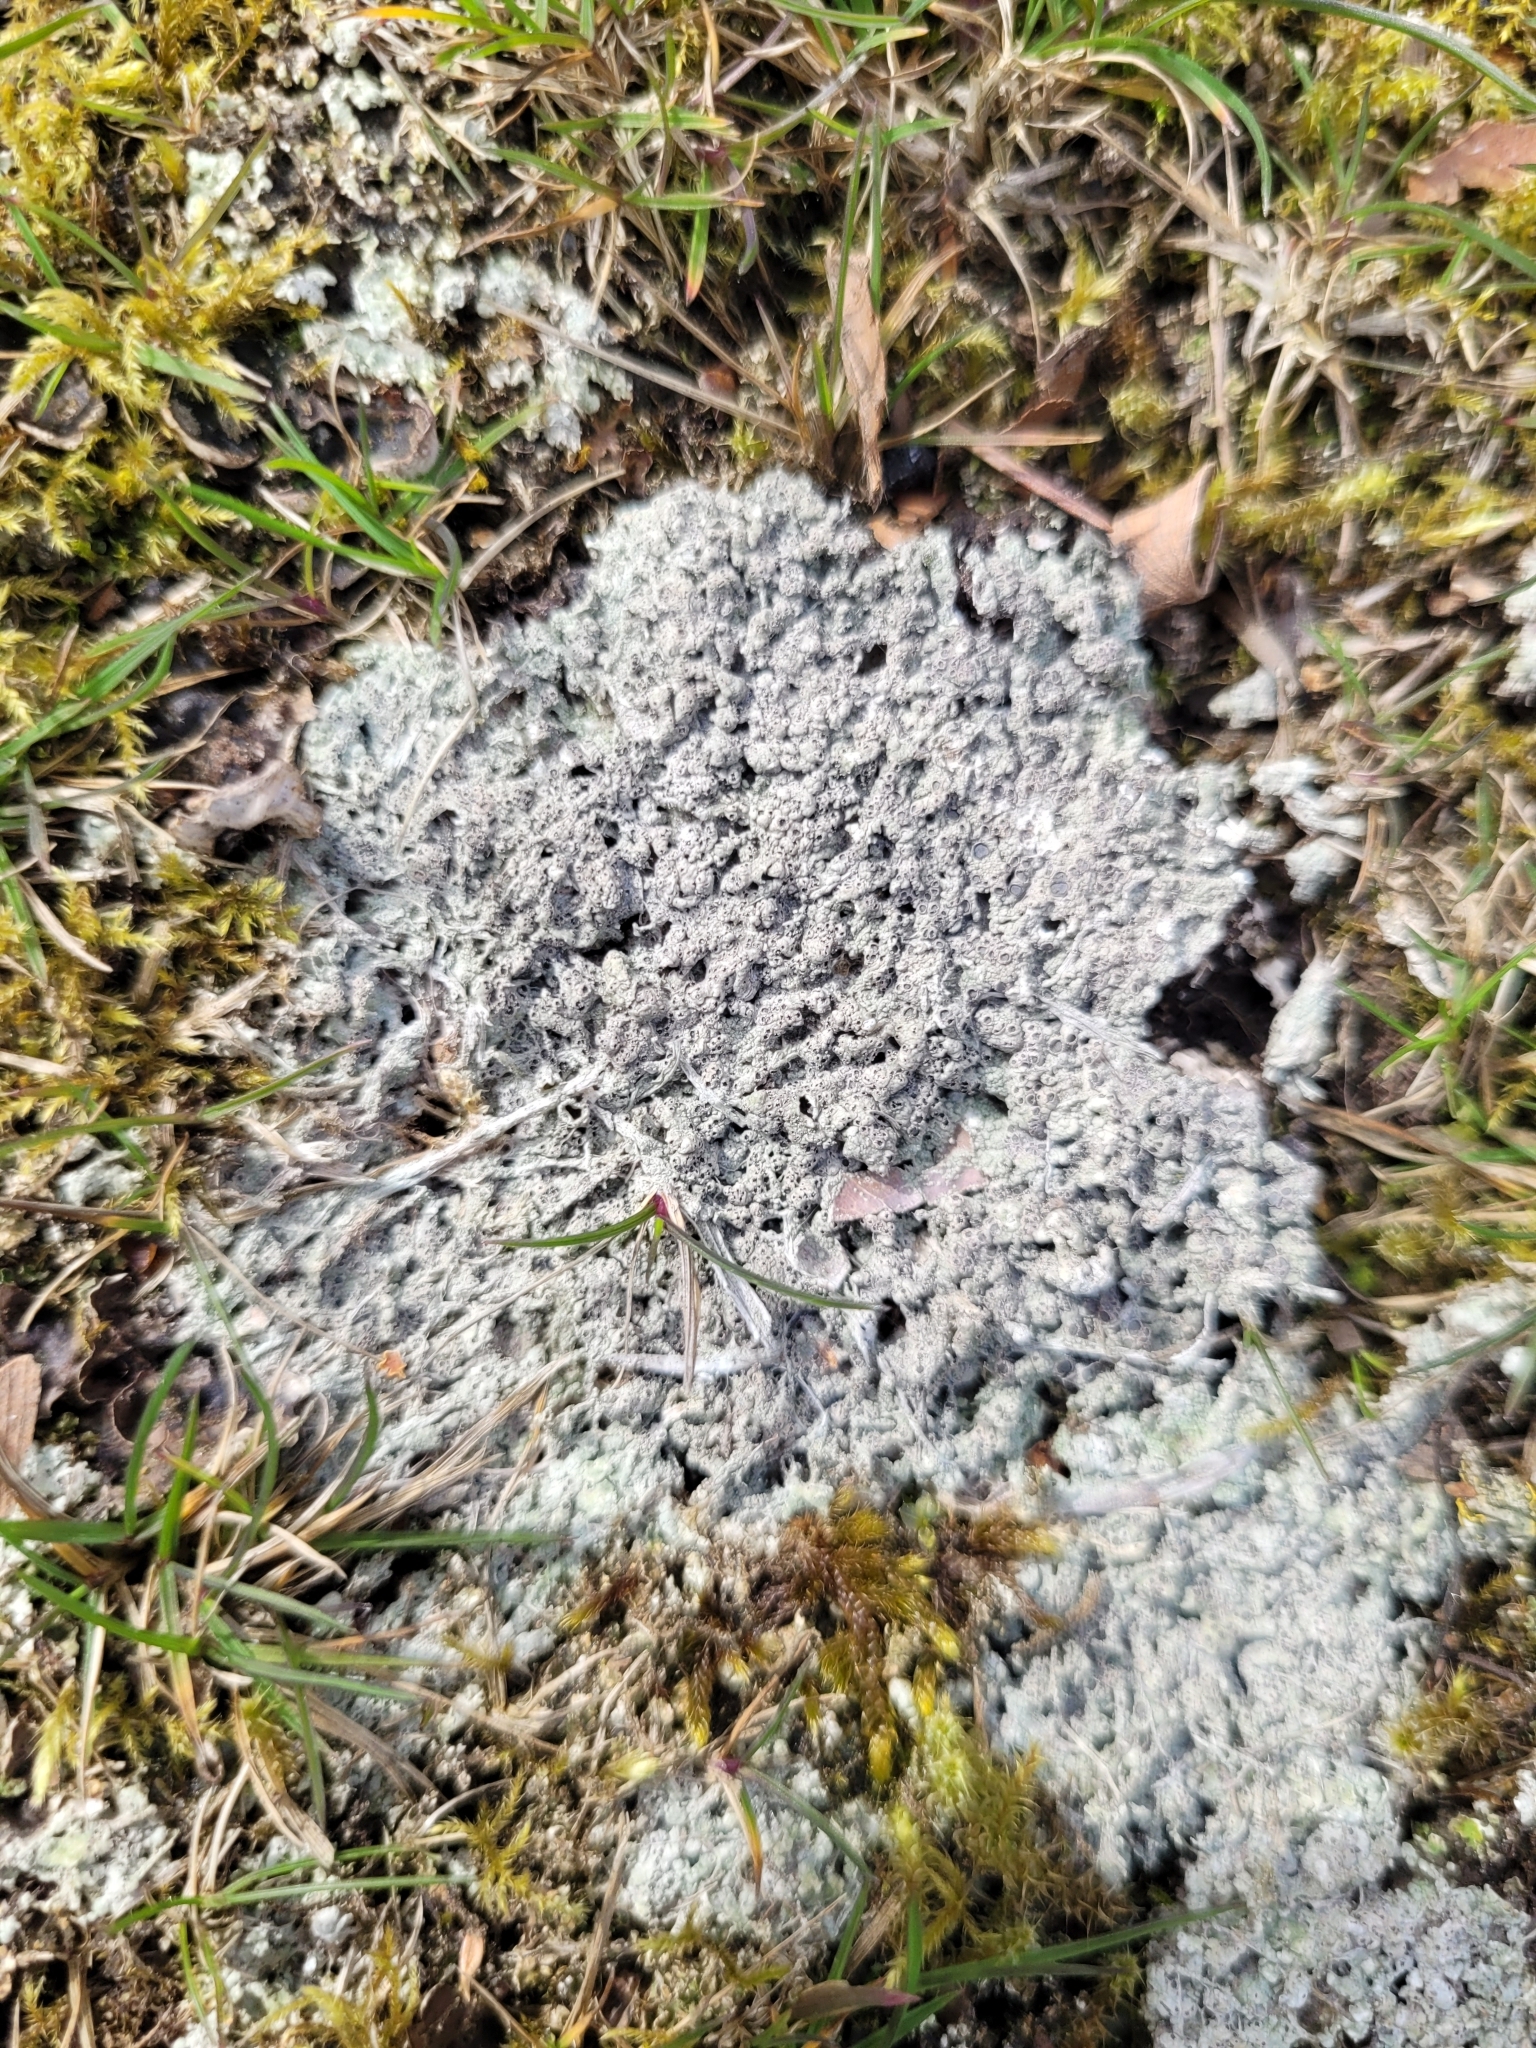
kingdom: Fungi
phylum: Ascomycota
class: Lecanoromycetes
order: Ostropales
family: Graphidaceae
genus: Diploschistes
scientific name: Diploschistes muscorum
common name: Cowpie lichen
